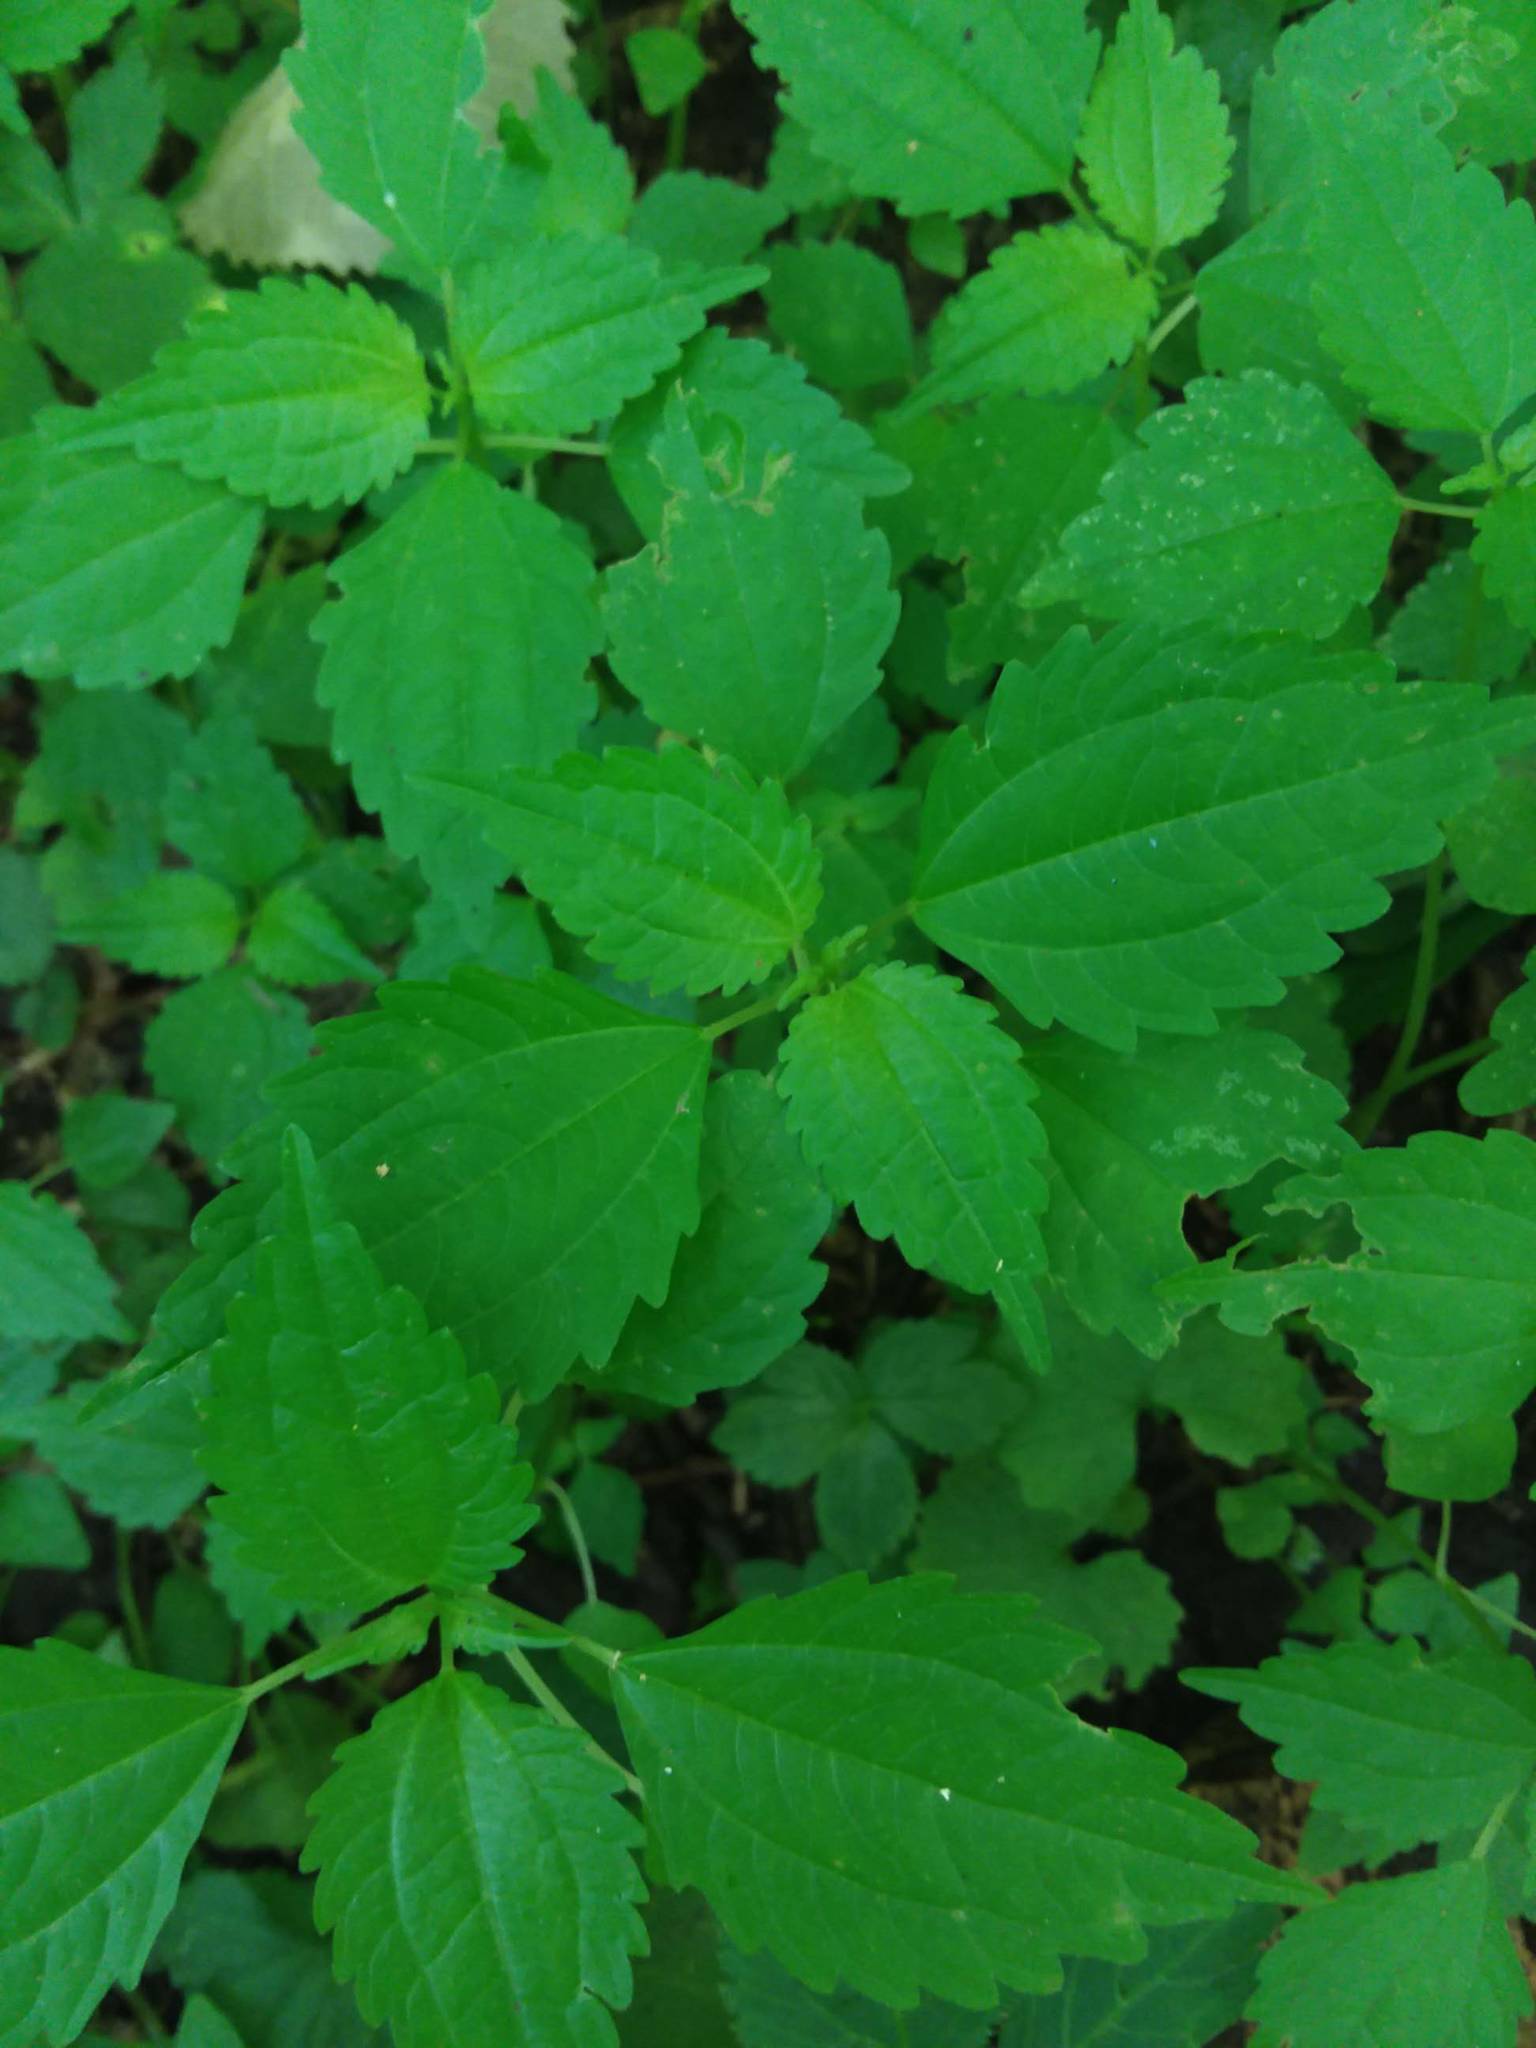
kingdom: Plantae
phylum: Tracheophyta
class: Magnoliopsida
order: Rosales
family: Urticaceae
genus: Pilea
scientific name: Pilea pumila
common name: Clearweed
